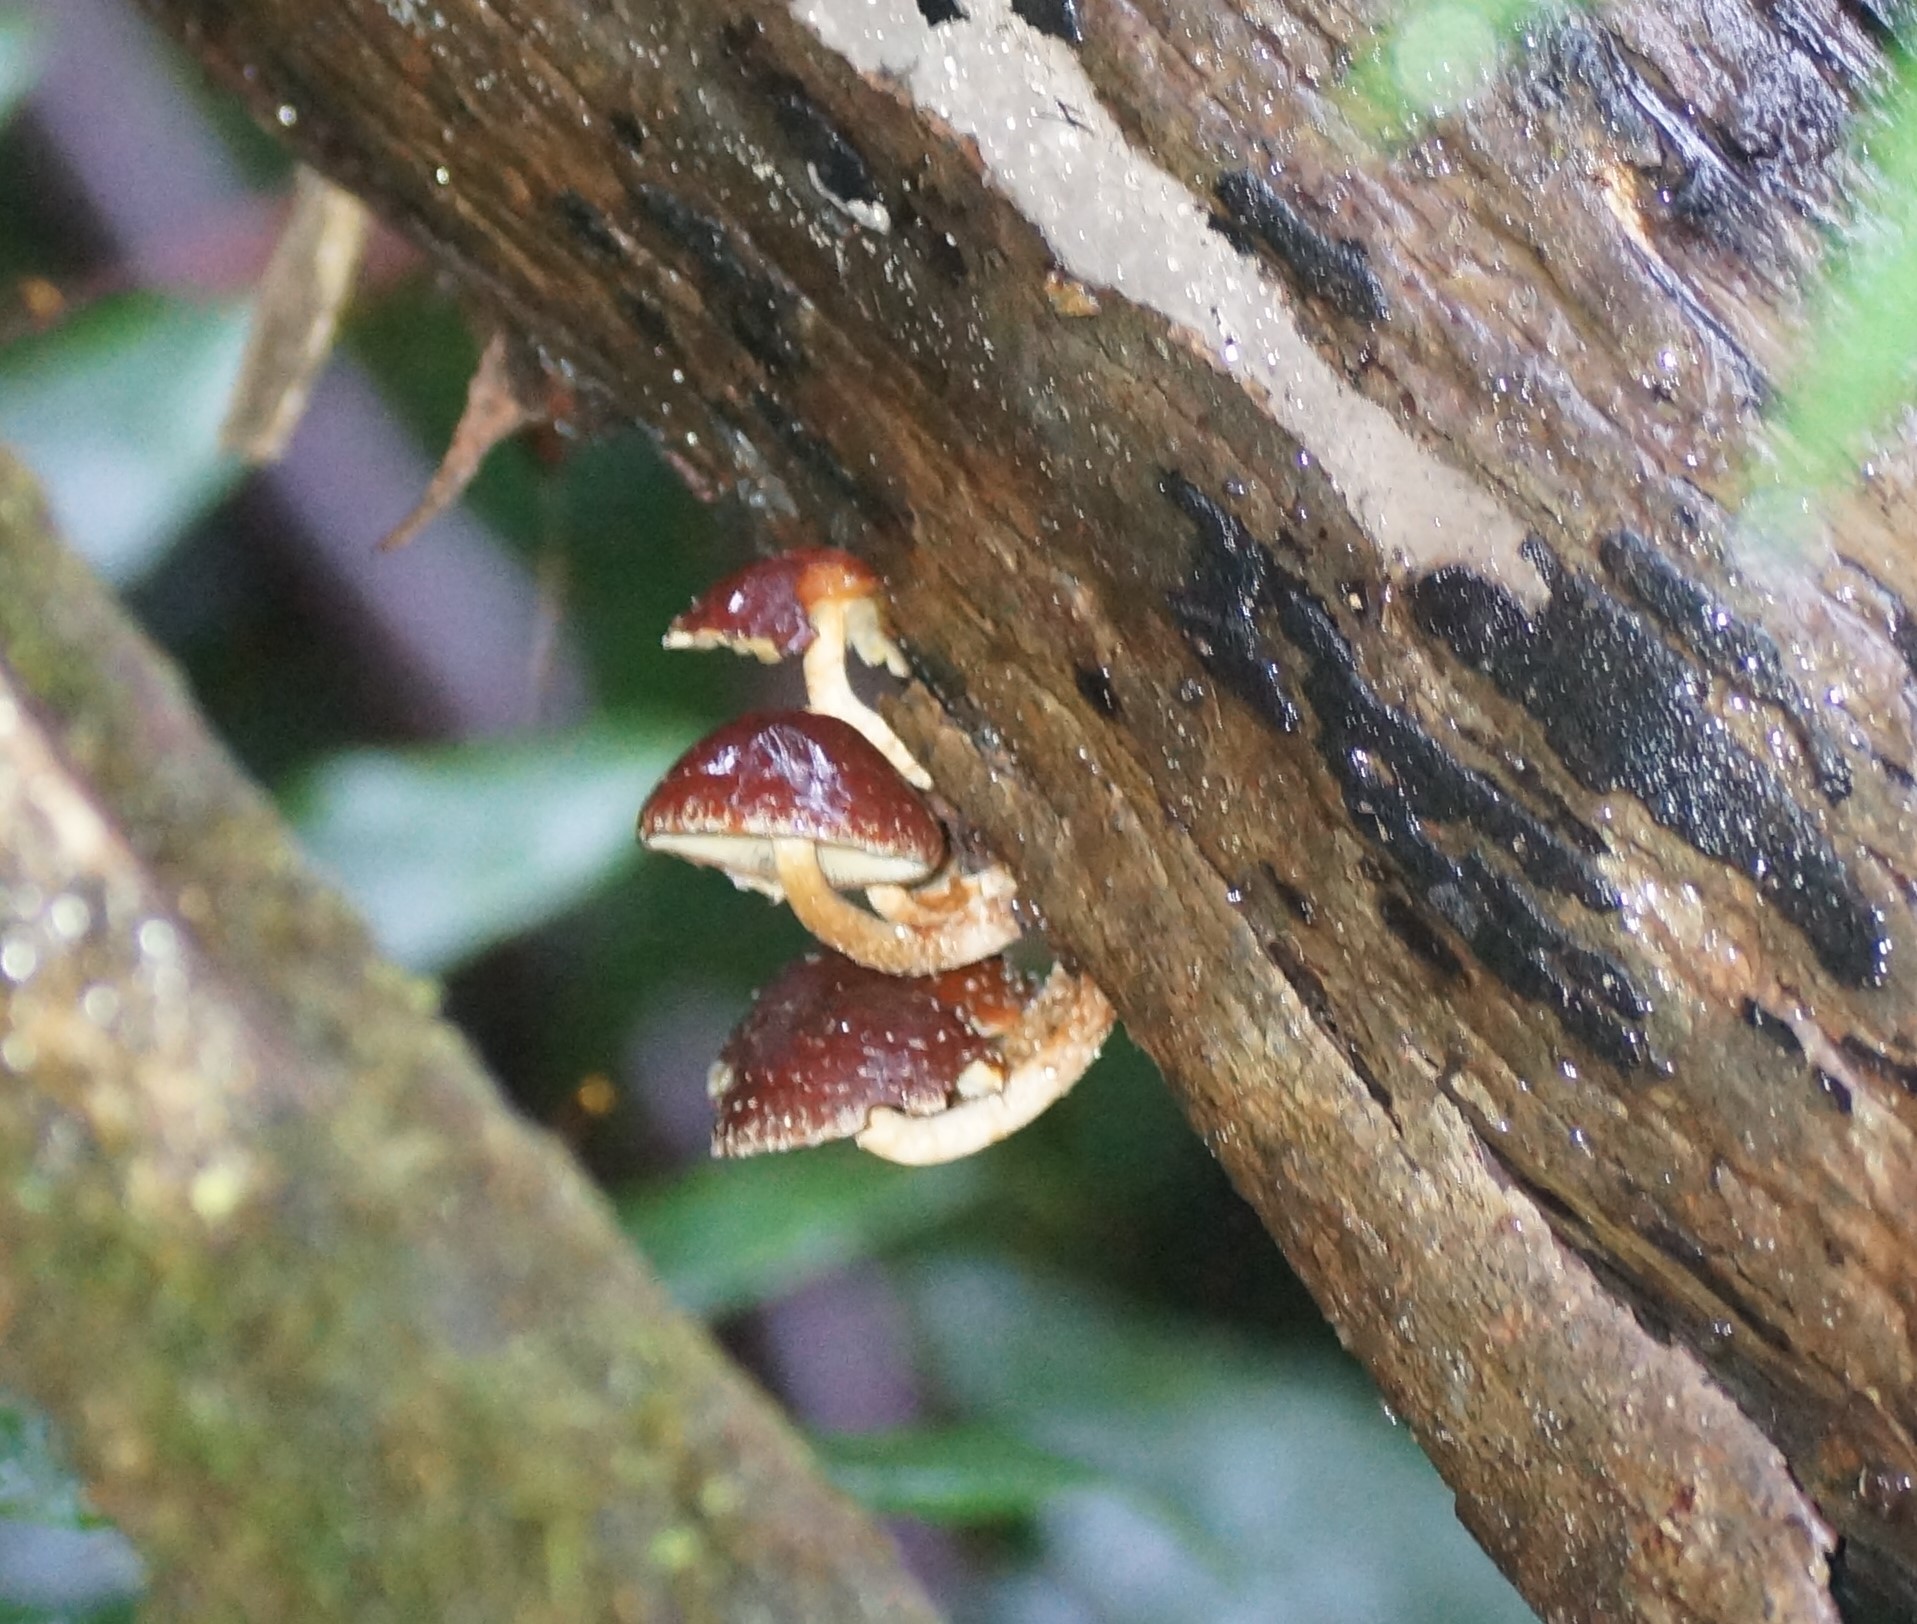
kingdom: Fungi
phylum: Basidiomycota
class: Agaricomycetes
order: Agaricales
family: Strophariaceae
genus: Hypholoma
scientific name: Hypholoma brunneum
